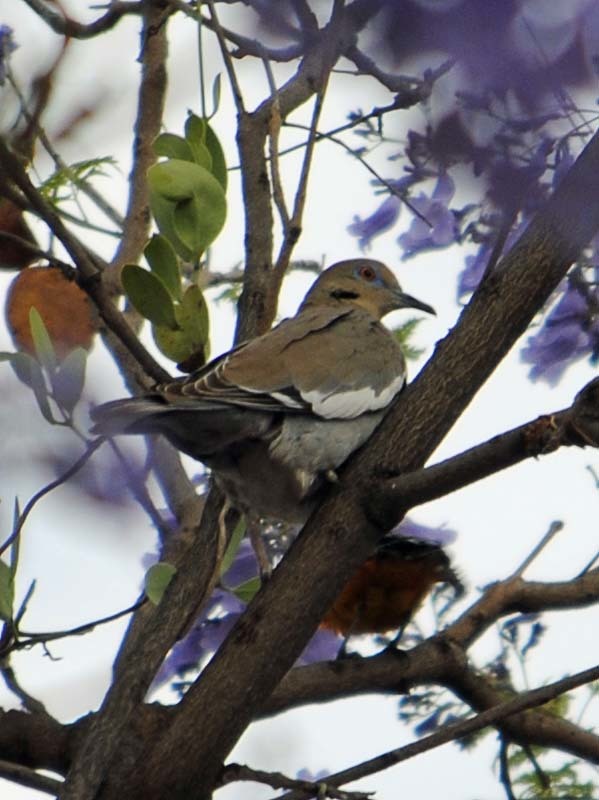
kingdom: Animalia
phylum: Chordata
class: Aves
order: Columbiformes
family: Columbidae
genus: Zenaida
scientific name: Zenaida asiatica
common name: White-winged dove
